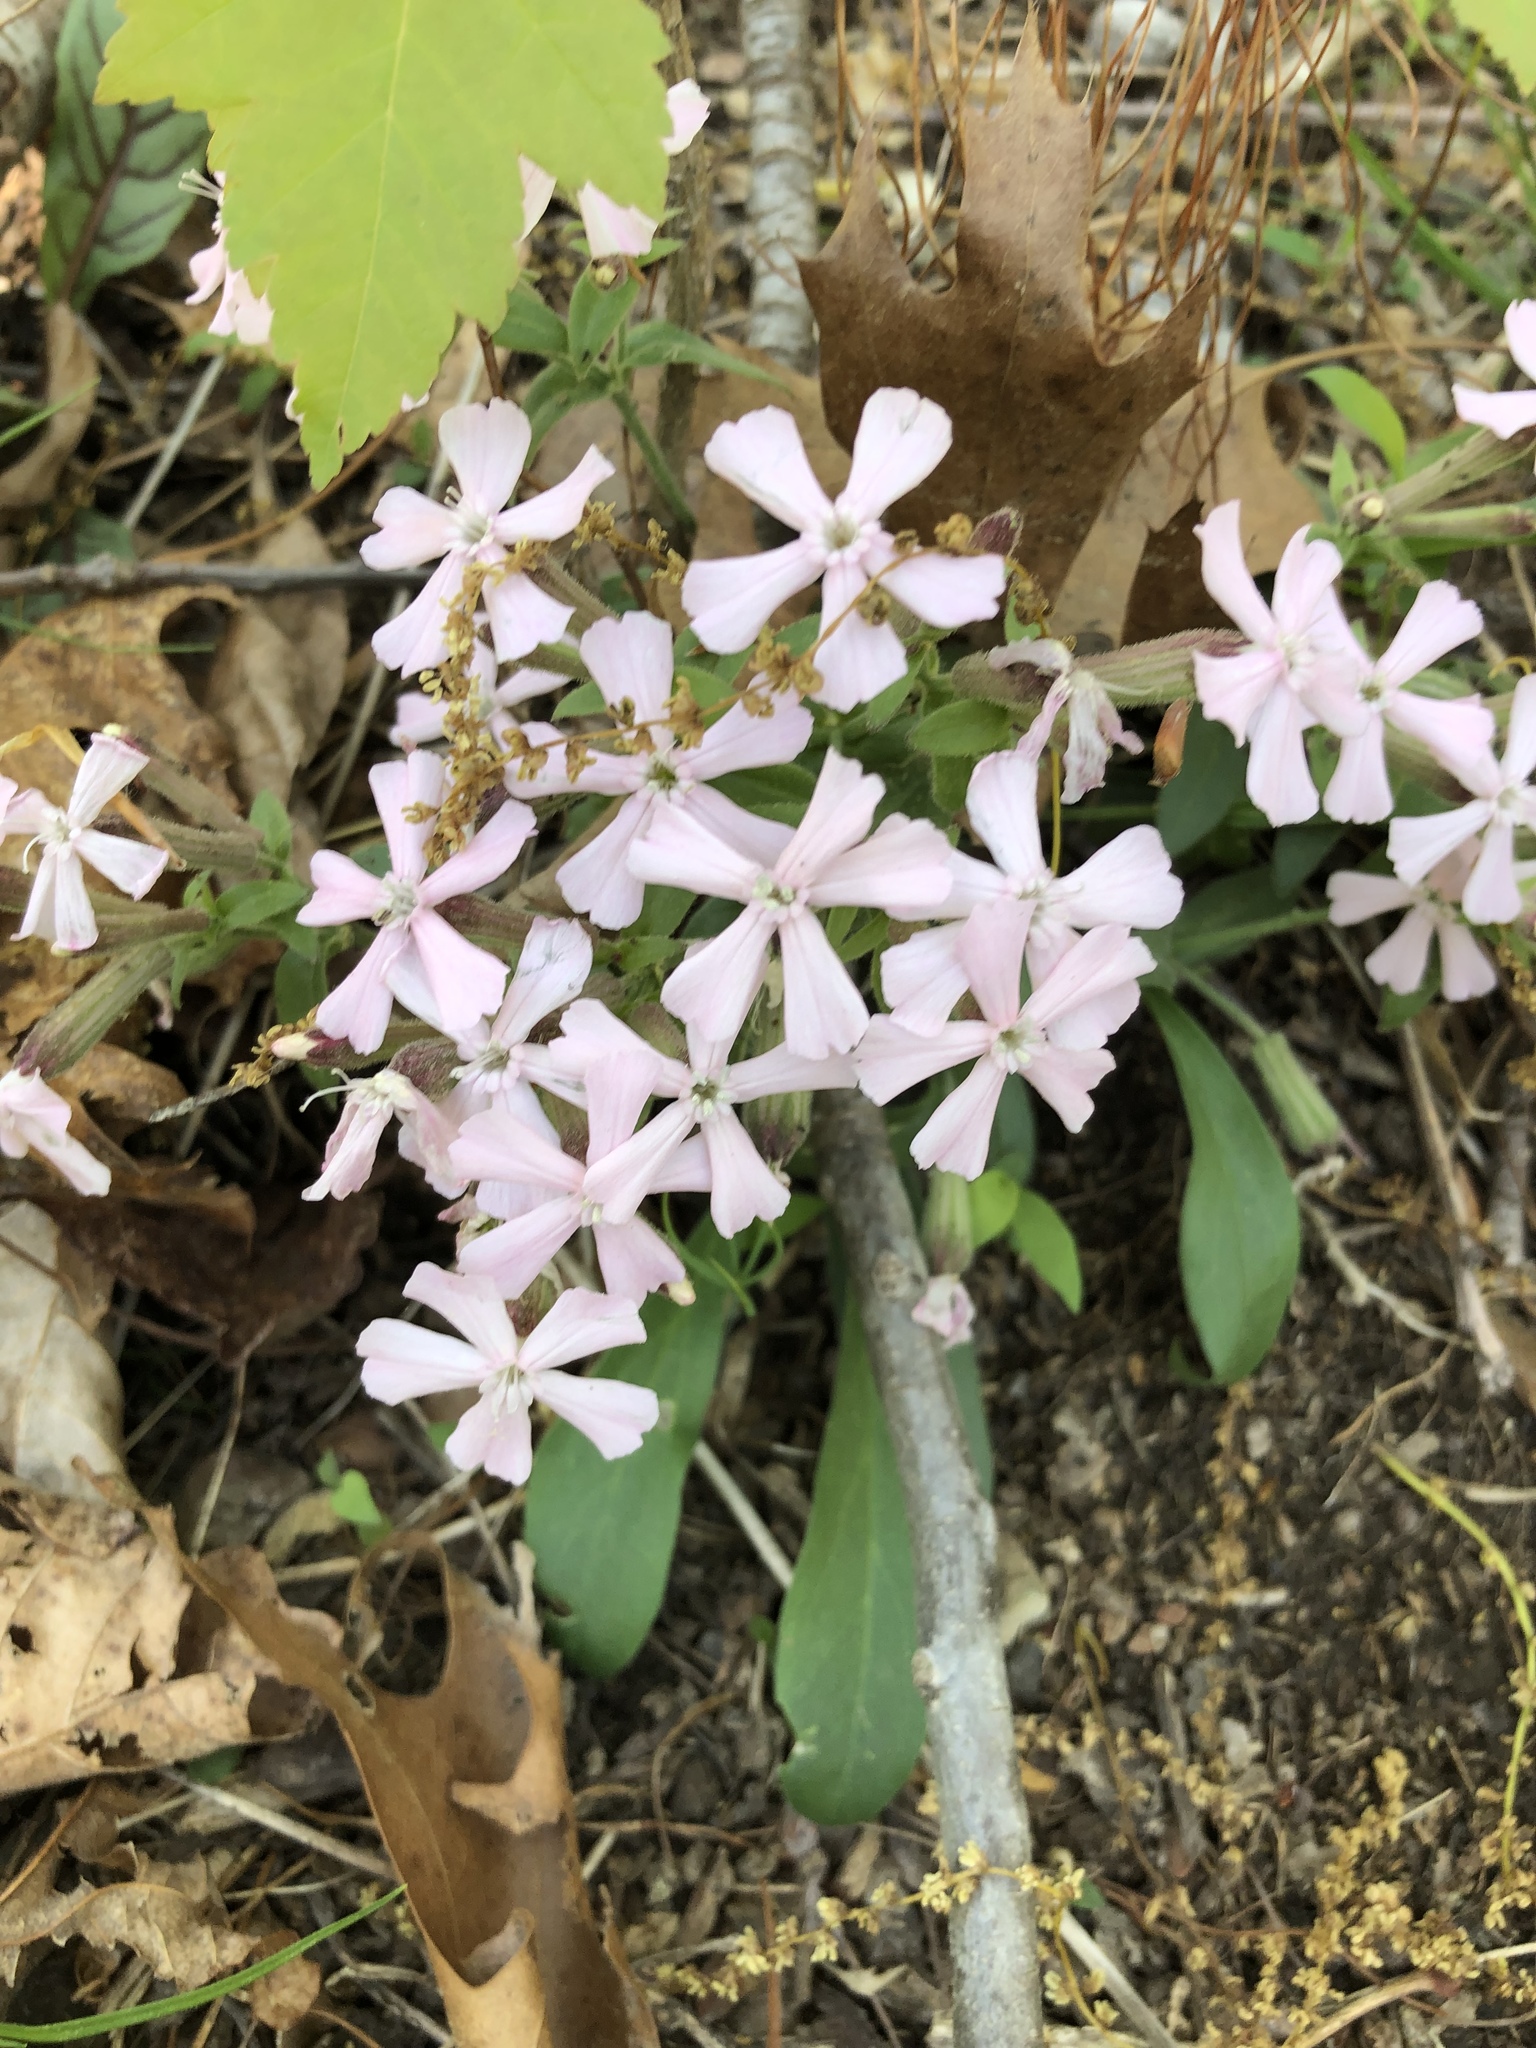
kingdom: Plantae
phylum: Tracheophyta
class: Magnoliopsida
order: Caryophyllales
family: Caryophyllaceae
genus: Silene
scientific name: Silene caroliniana
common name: Sticky catchfly
